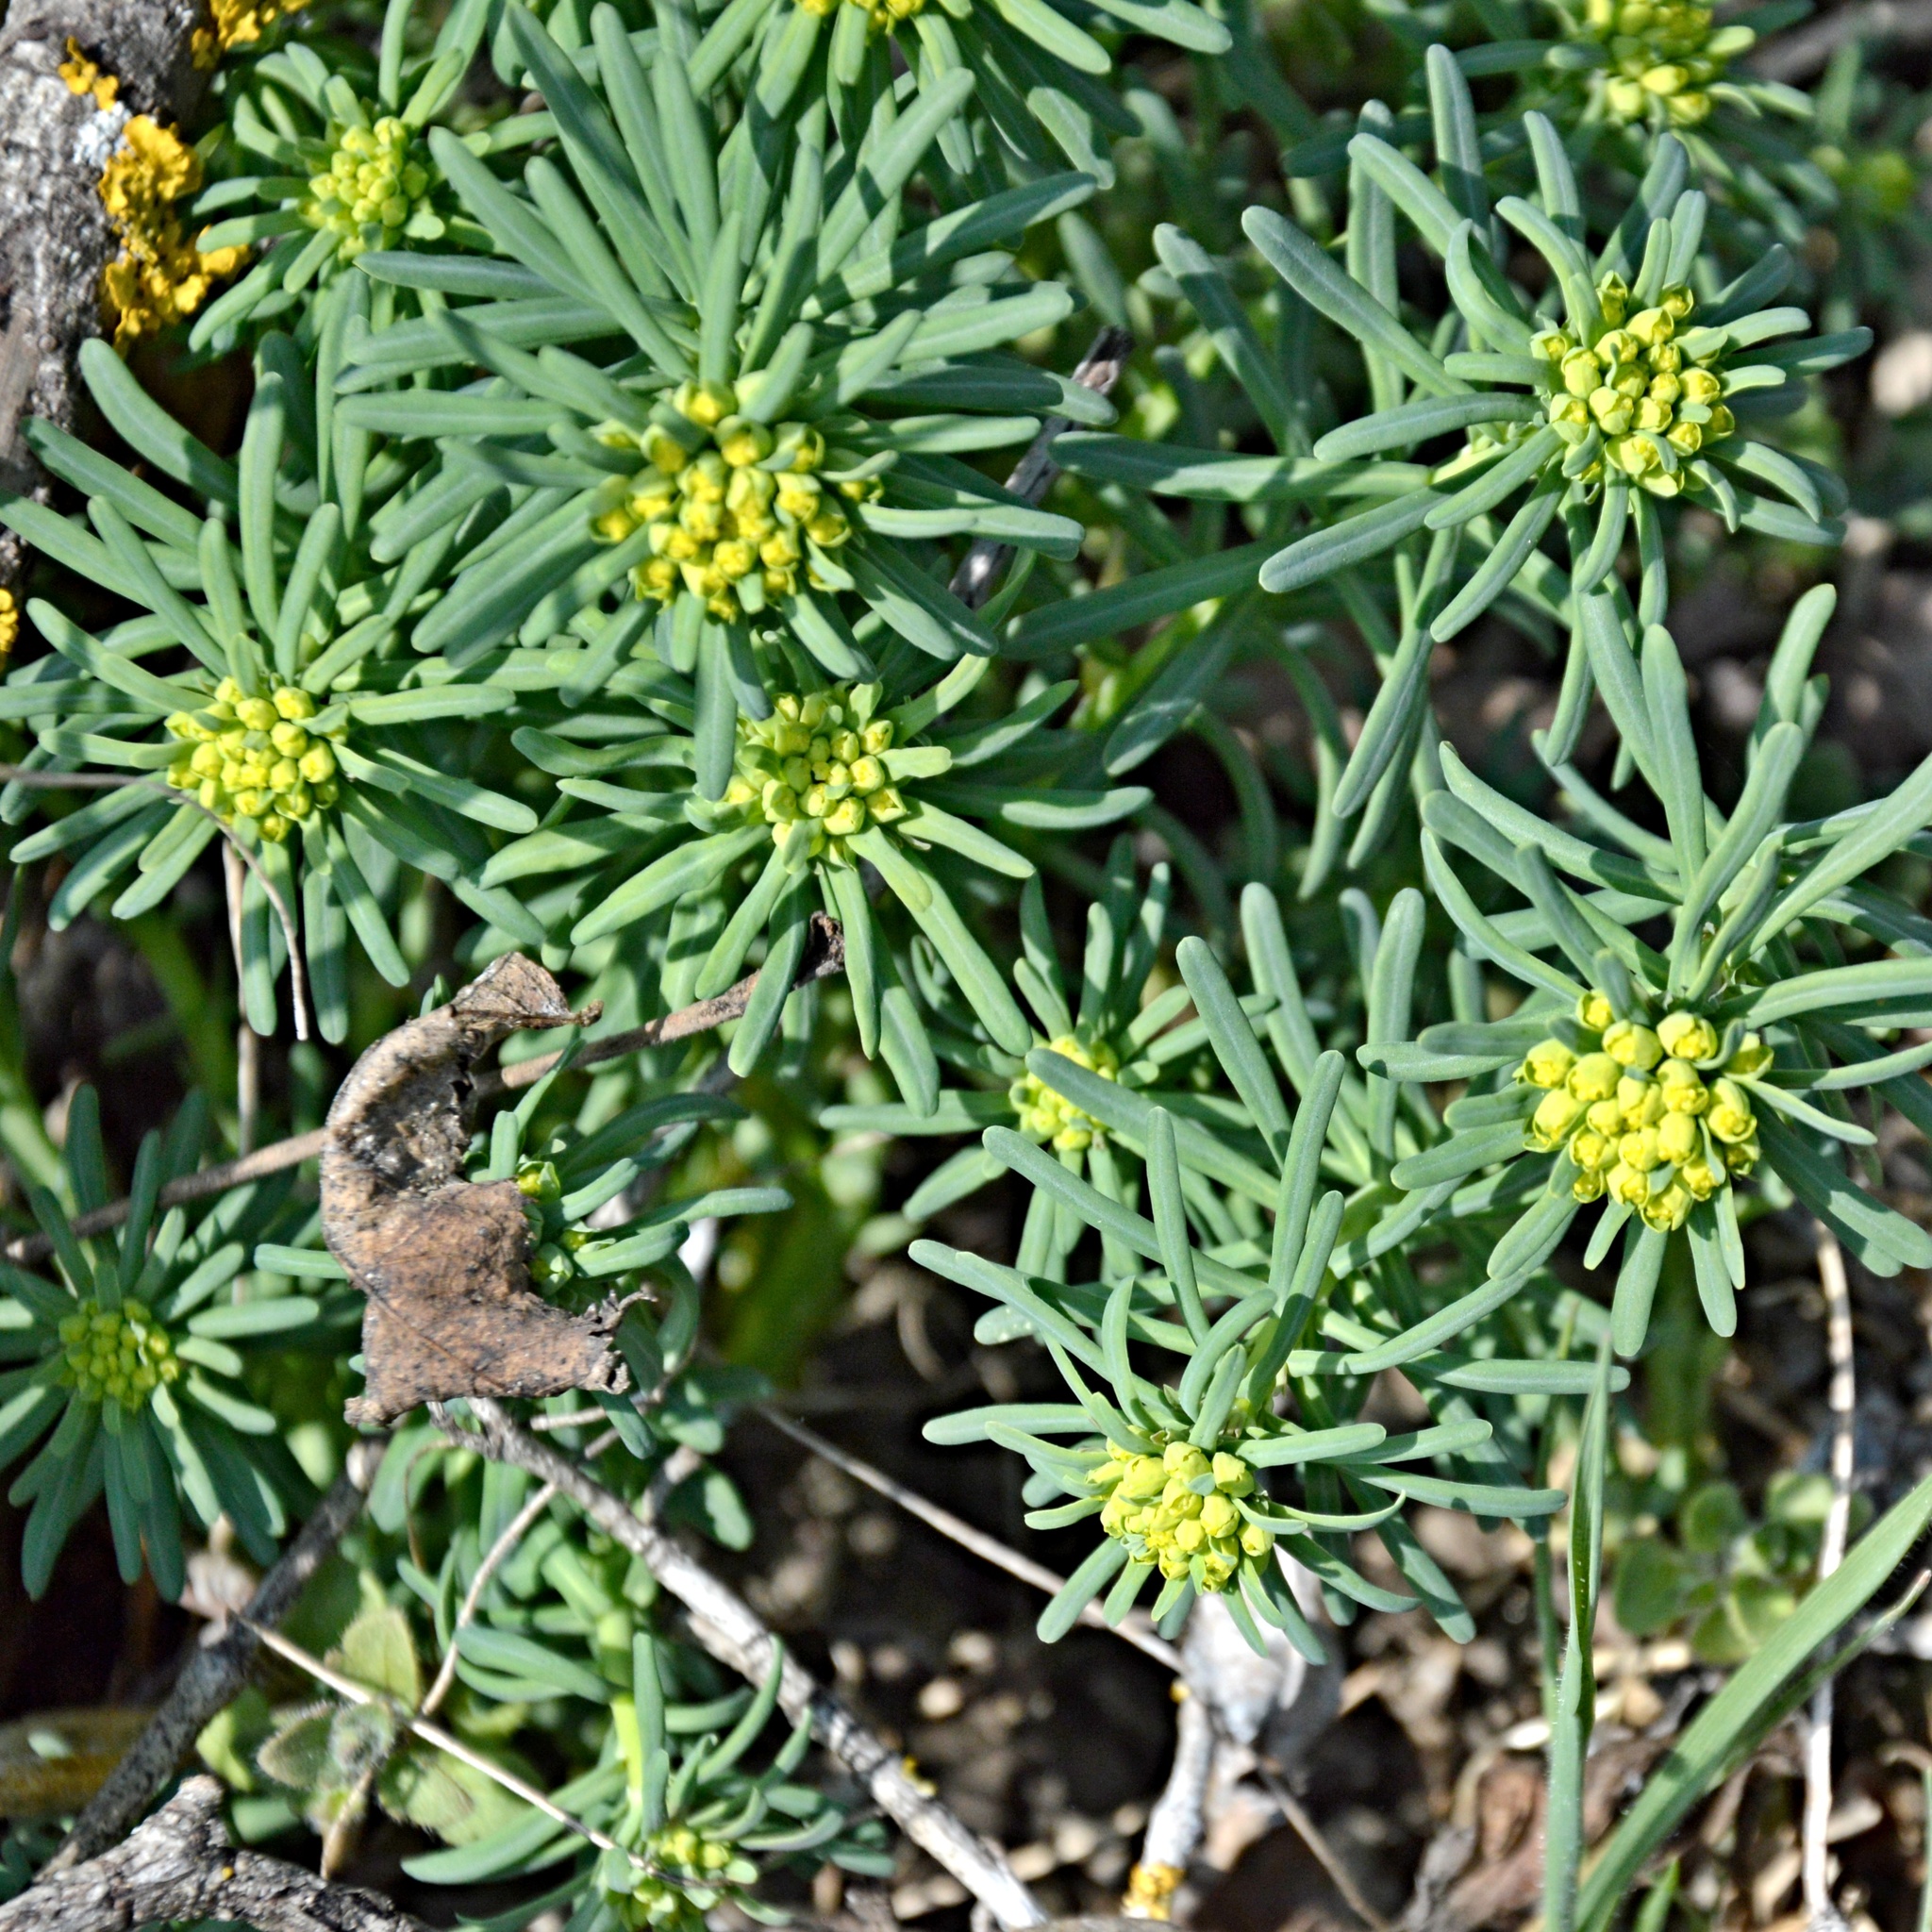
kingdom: Plantae
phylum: Tracheophyta
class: Magnoliopsida
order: Malpighiales
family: Euphorbiaceae
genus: Euphorbia
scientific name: Euphorbia cyparissias
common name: Cypress spurge
